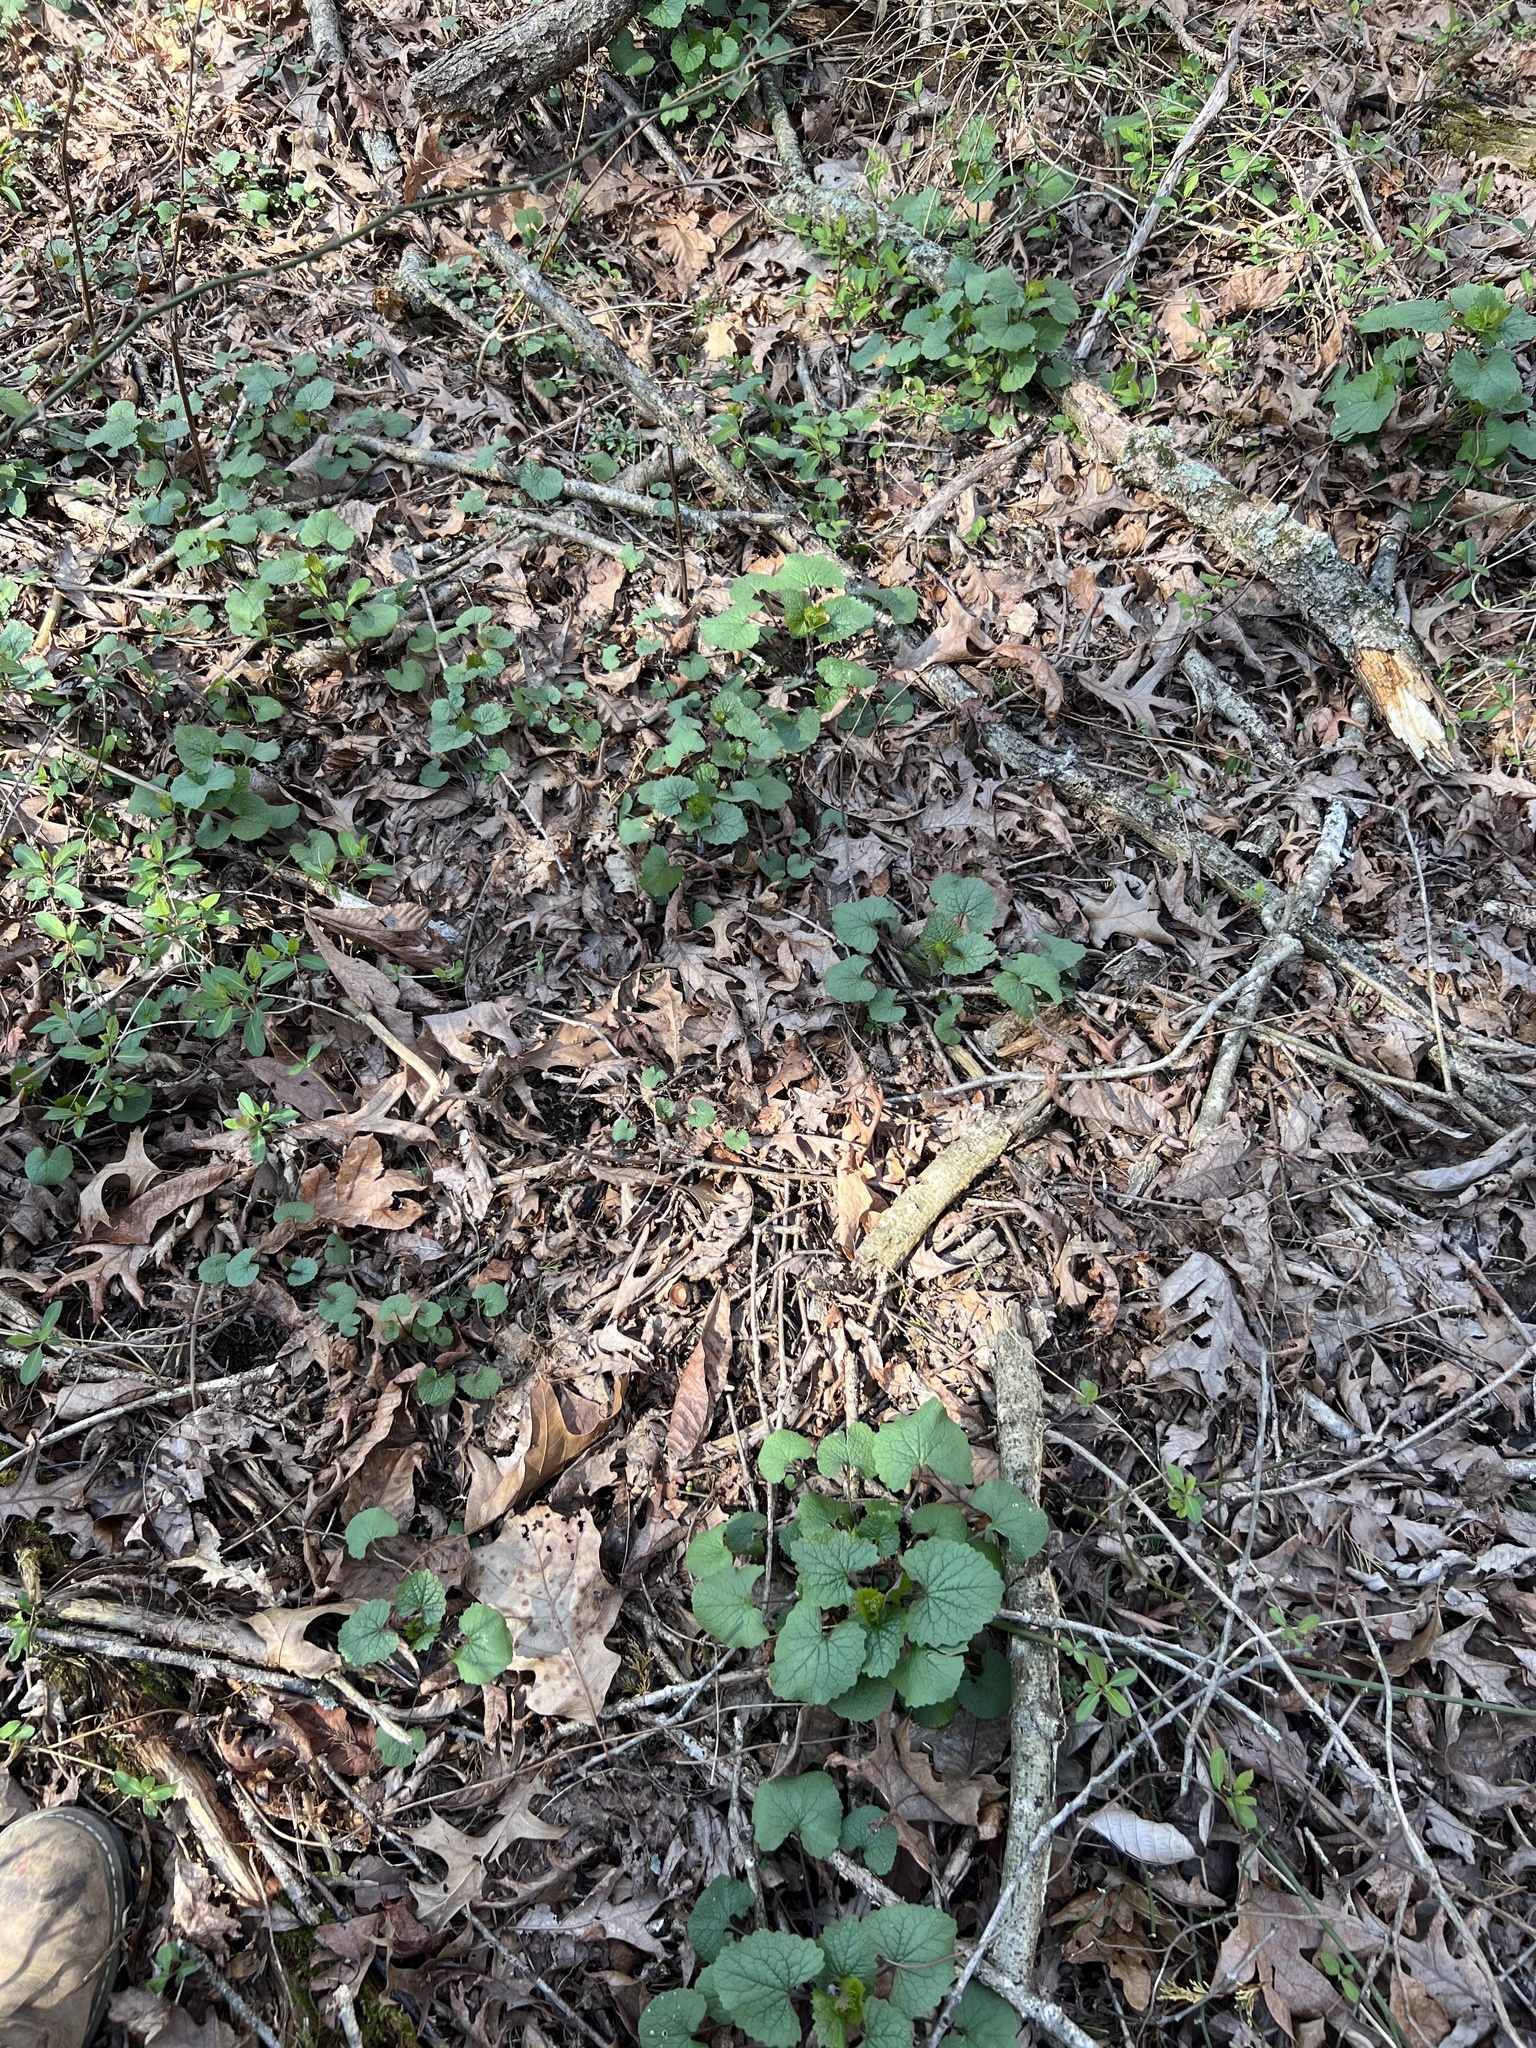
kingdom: Plantae
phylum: Tracheophyta
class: Magnoliopsida
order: Brassicales
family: Brassicaceae
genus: Alliaria
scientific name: Alliaria petiolata
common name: Garlic mustard
